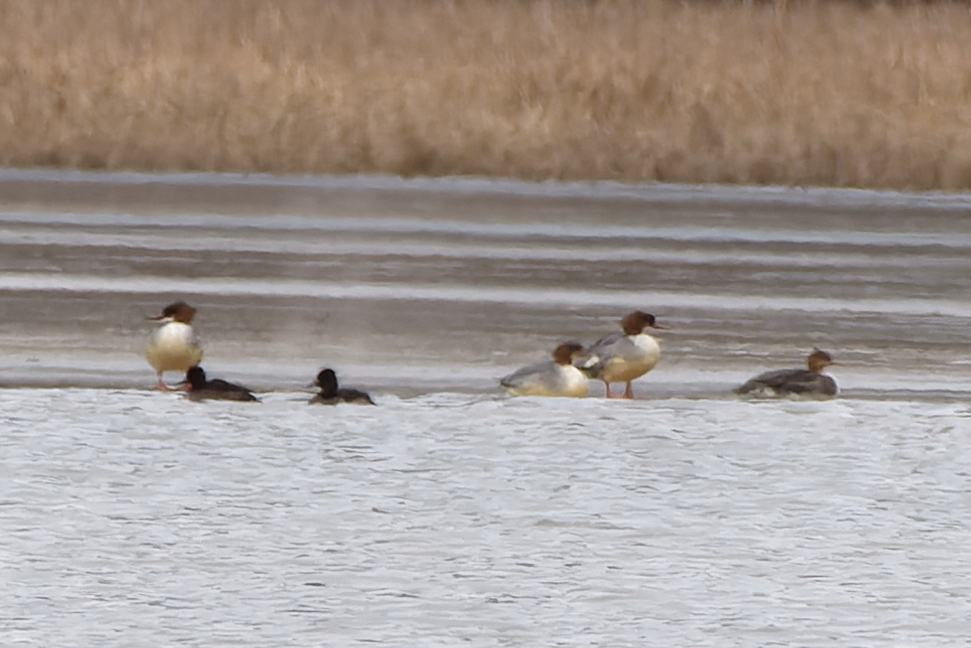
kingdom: Animalia
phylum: Chordata
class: Aves
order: Anseriformes
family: Anatidae
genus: Mergus
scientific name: Mergus merganser
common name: Common merganser
